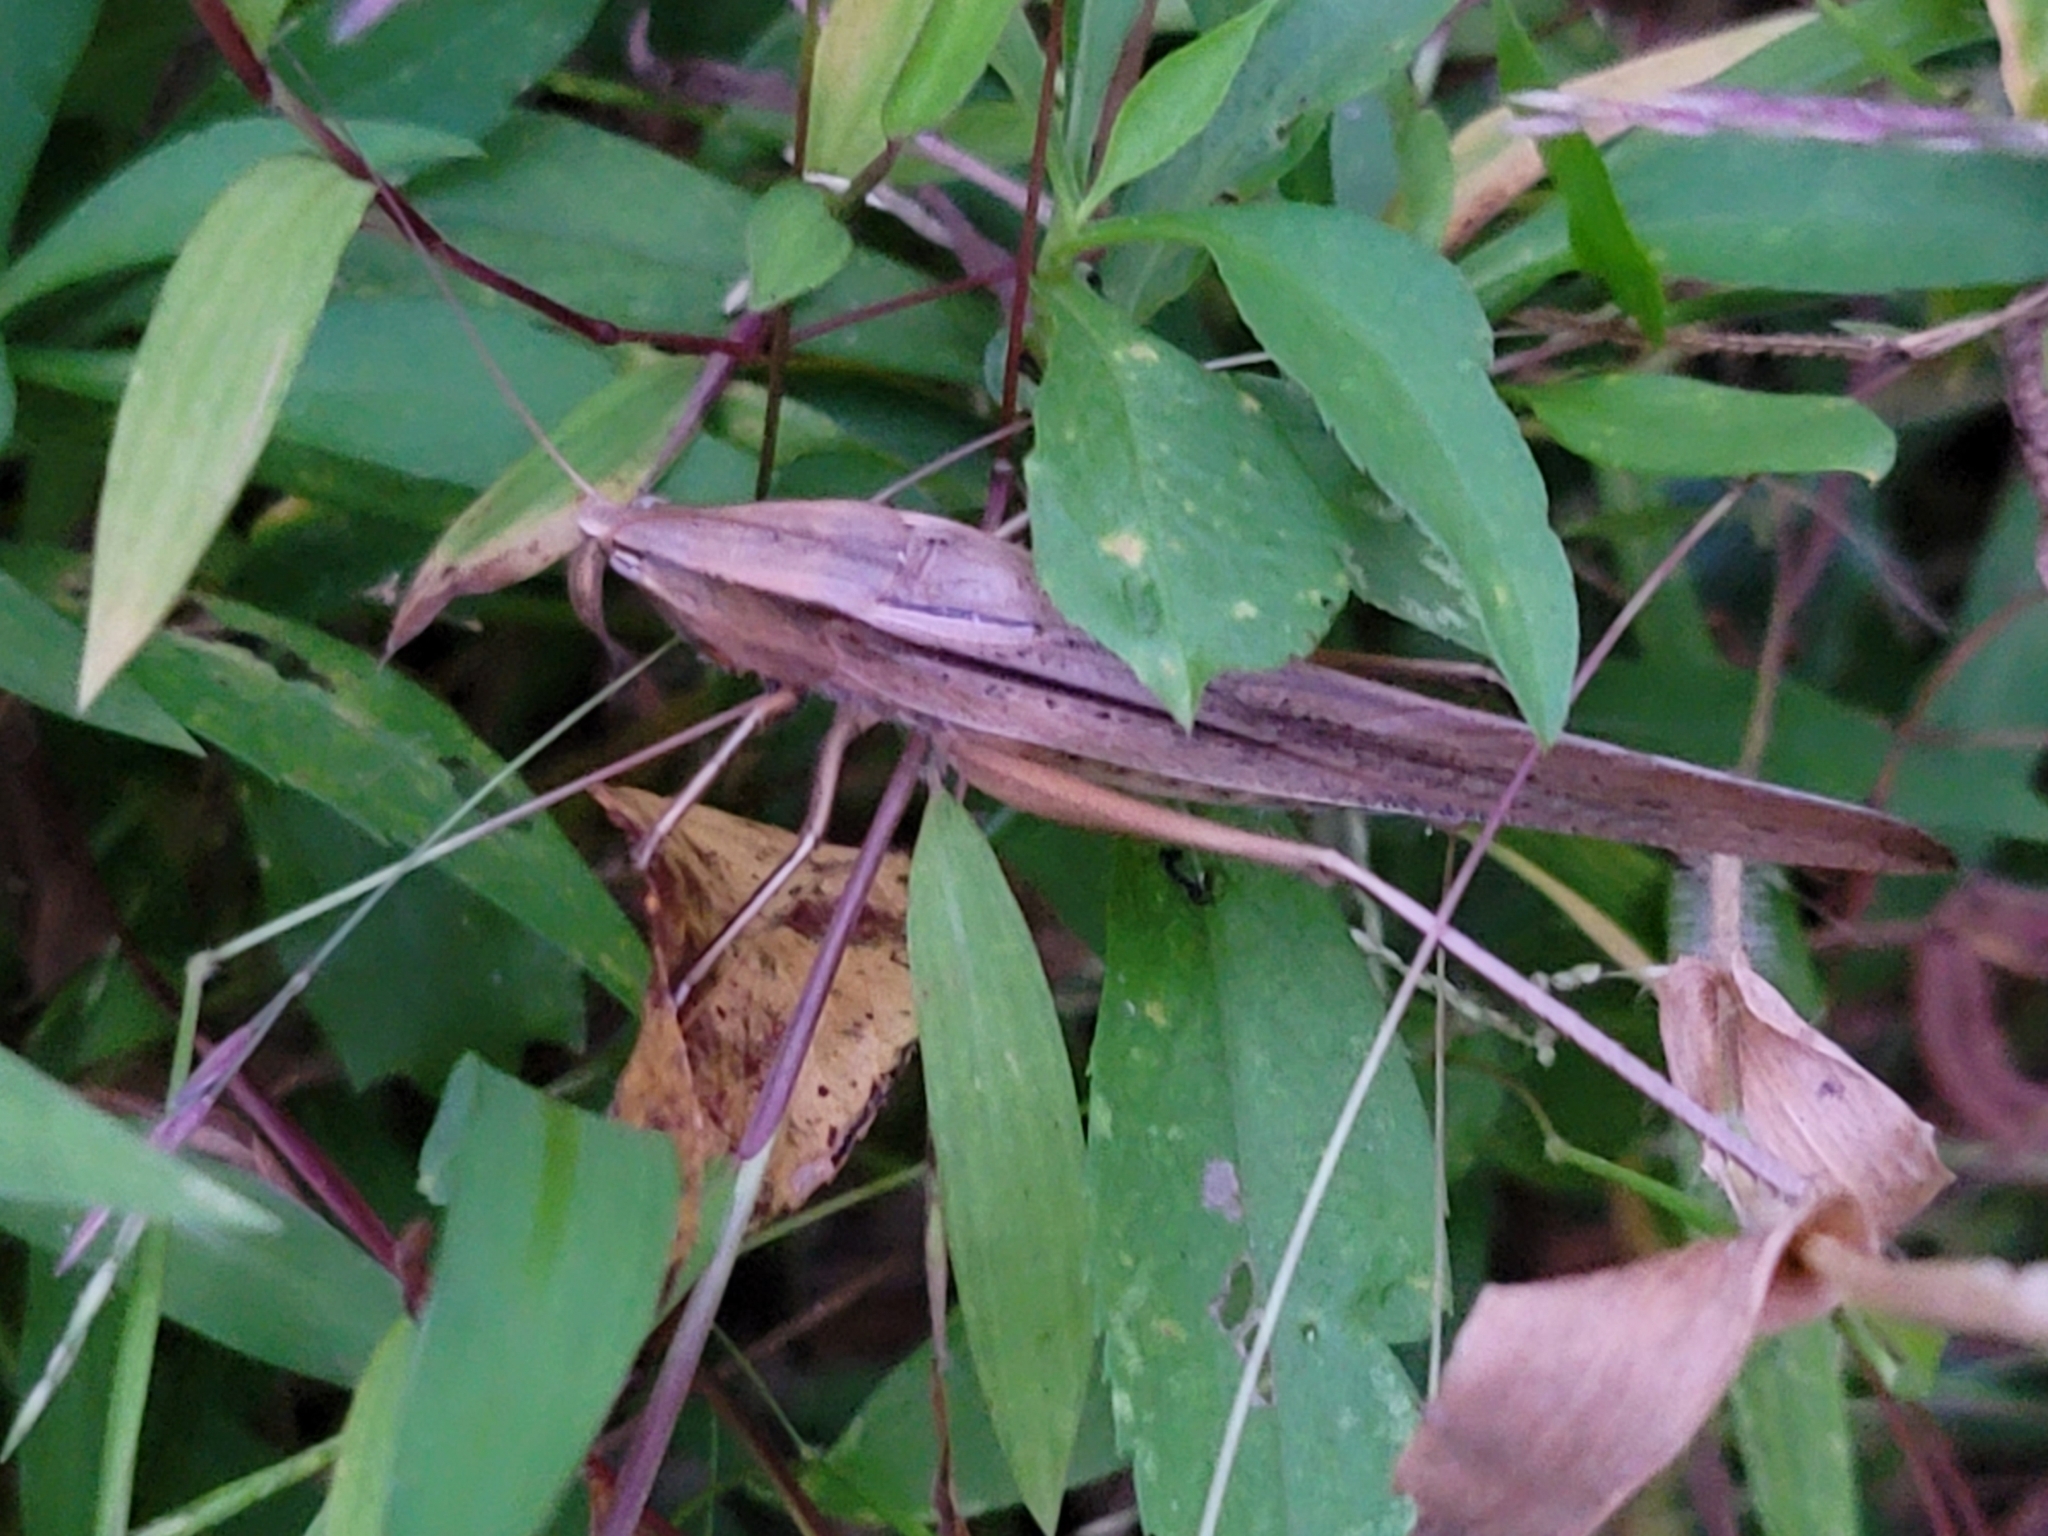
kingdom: Animalia
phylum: Arthropoda
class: Insecta
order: Orthoptera
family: Tettigoniidae
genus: Neoconocephalus
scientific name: Neoconocephalus triops
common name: Broad-tipped conehead
